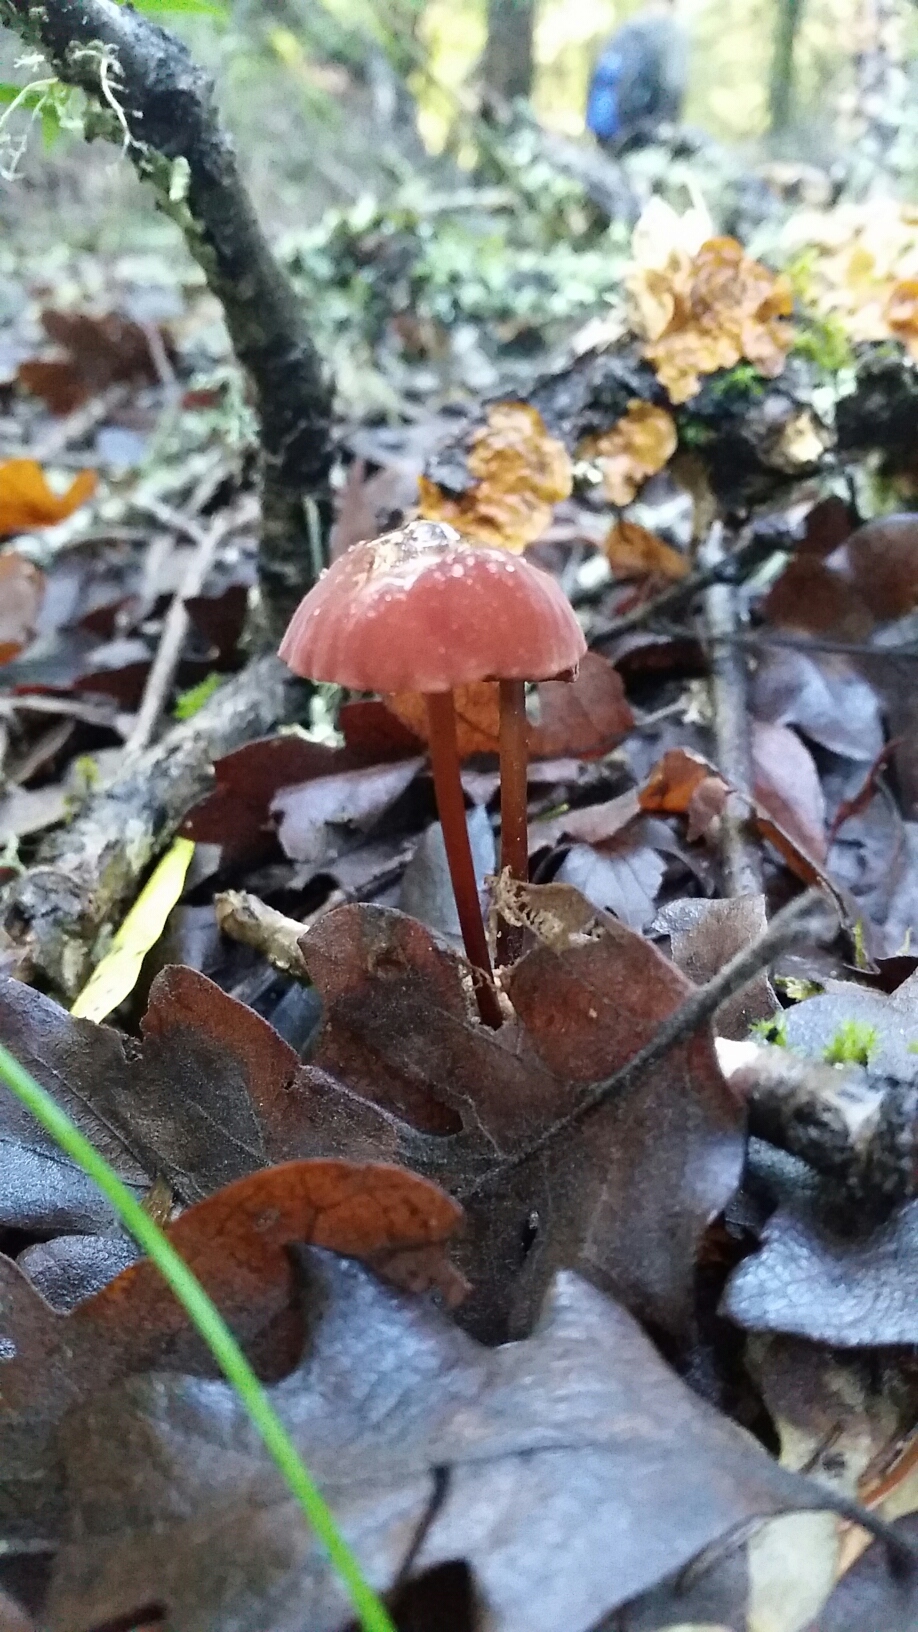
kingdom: Fungi
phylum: Basidiomycota
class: Agaricomycetes
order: Agaricales
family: Marasmiaceae
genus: Marasmius
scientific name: Marasmius plicatulus
